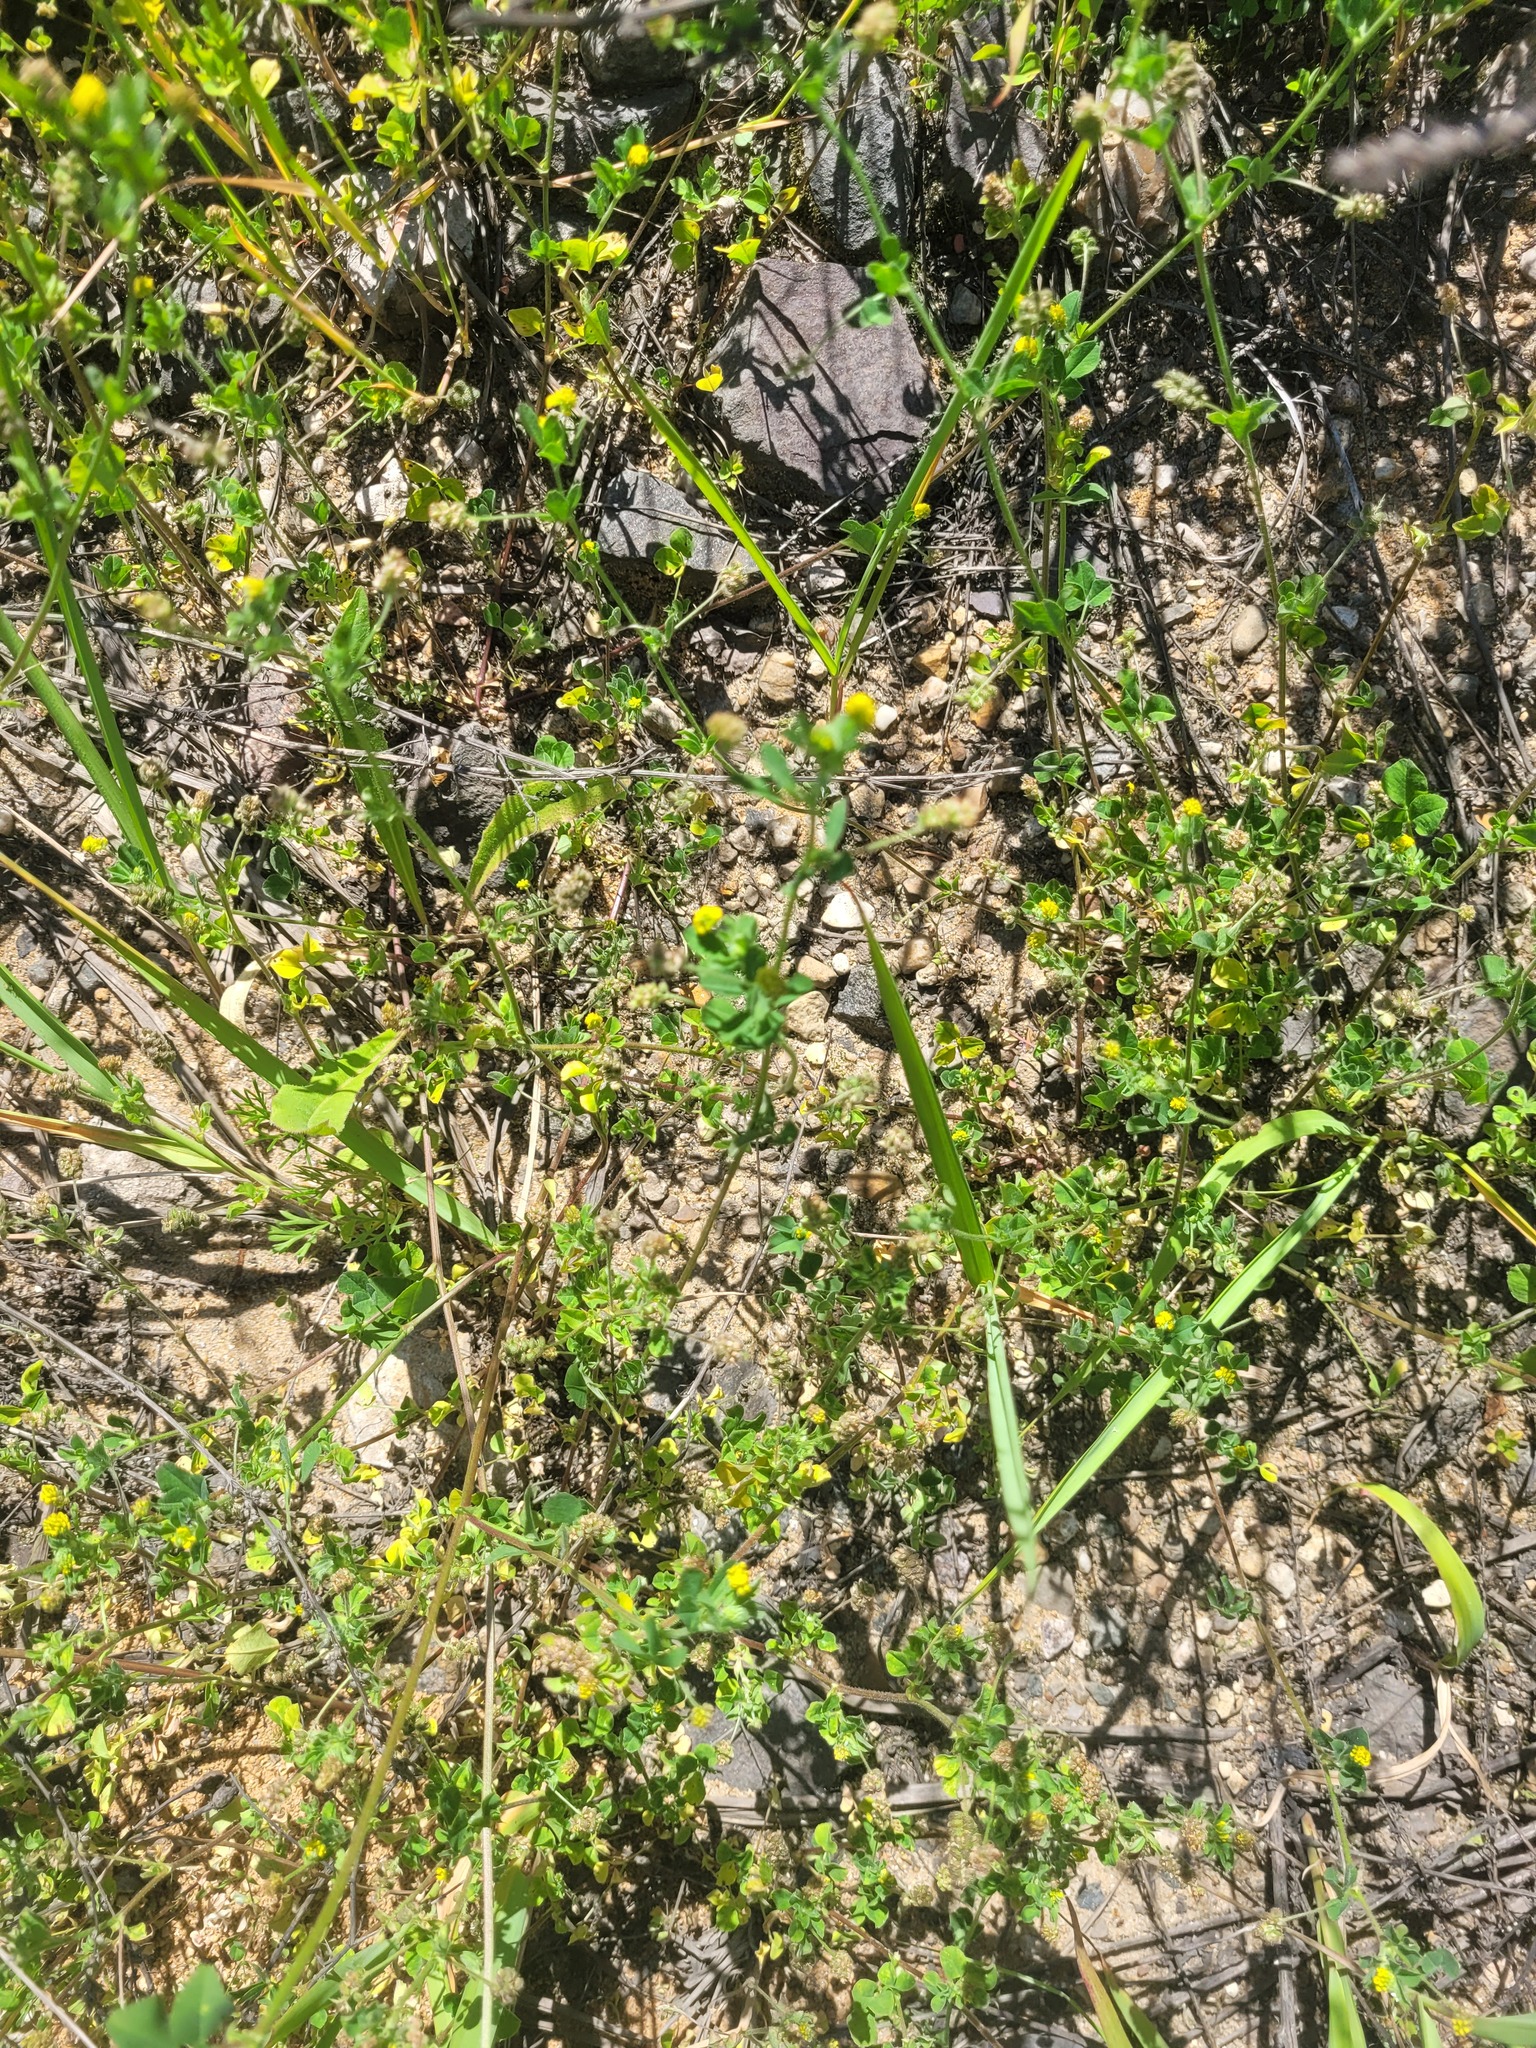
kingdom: Plantae
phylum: Tracheophyta
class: Magnoliopsida
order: Fabales
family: Fabaceae
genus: Medicago
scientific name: Medicago lupulina
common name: Black medick
